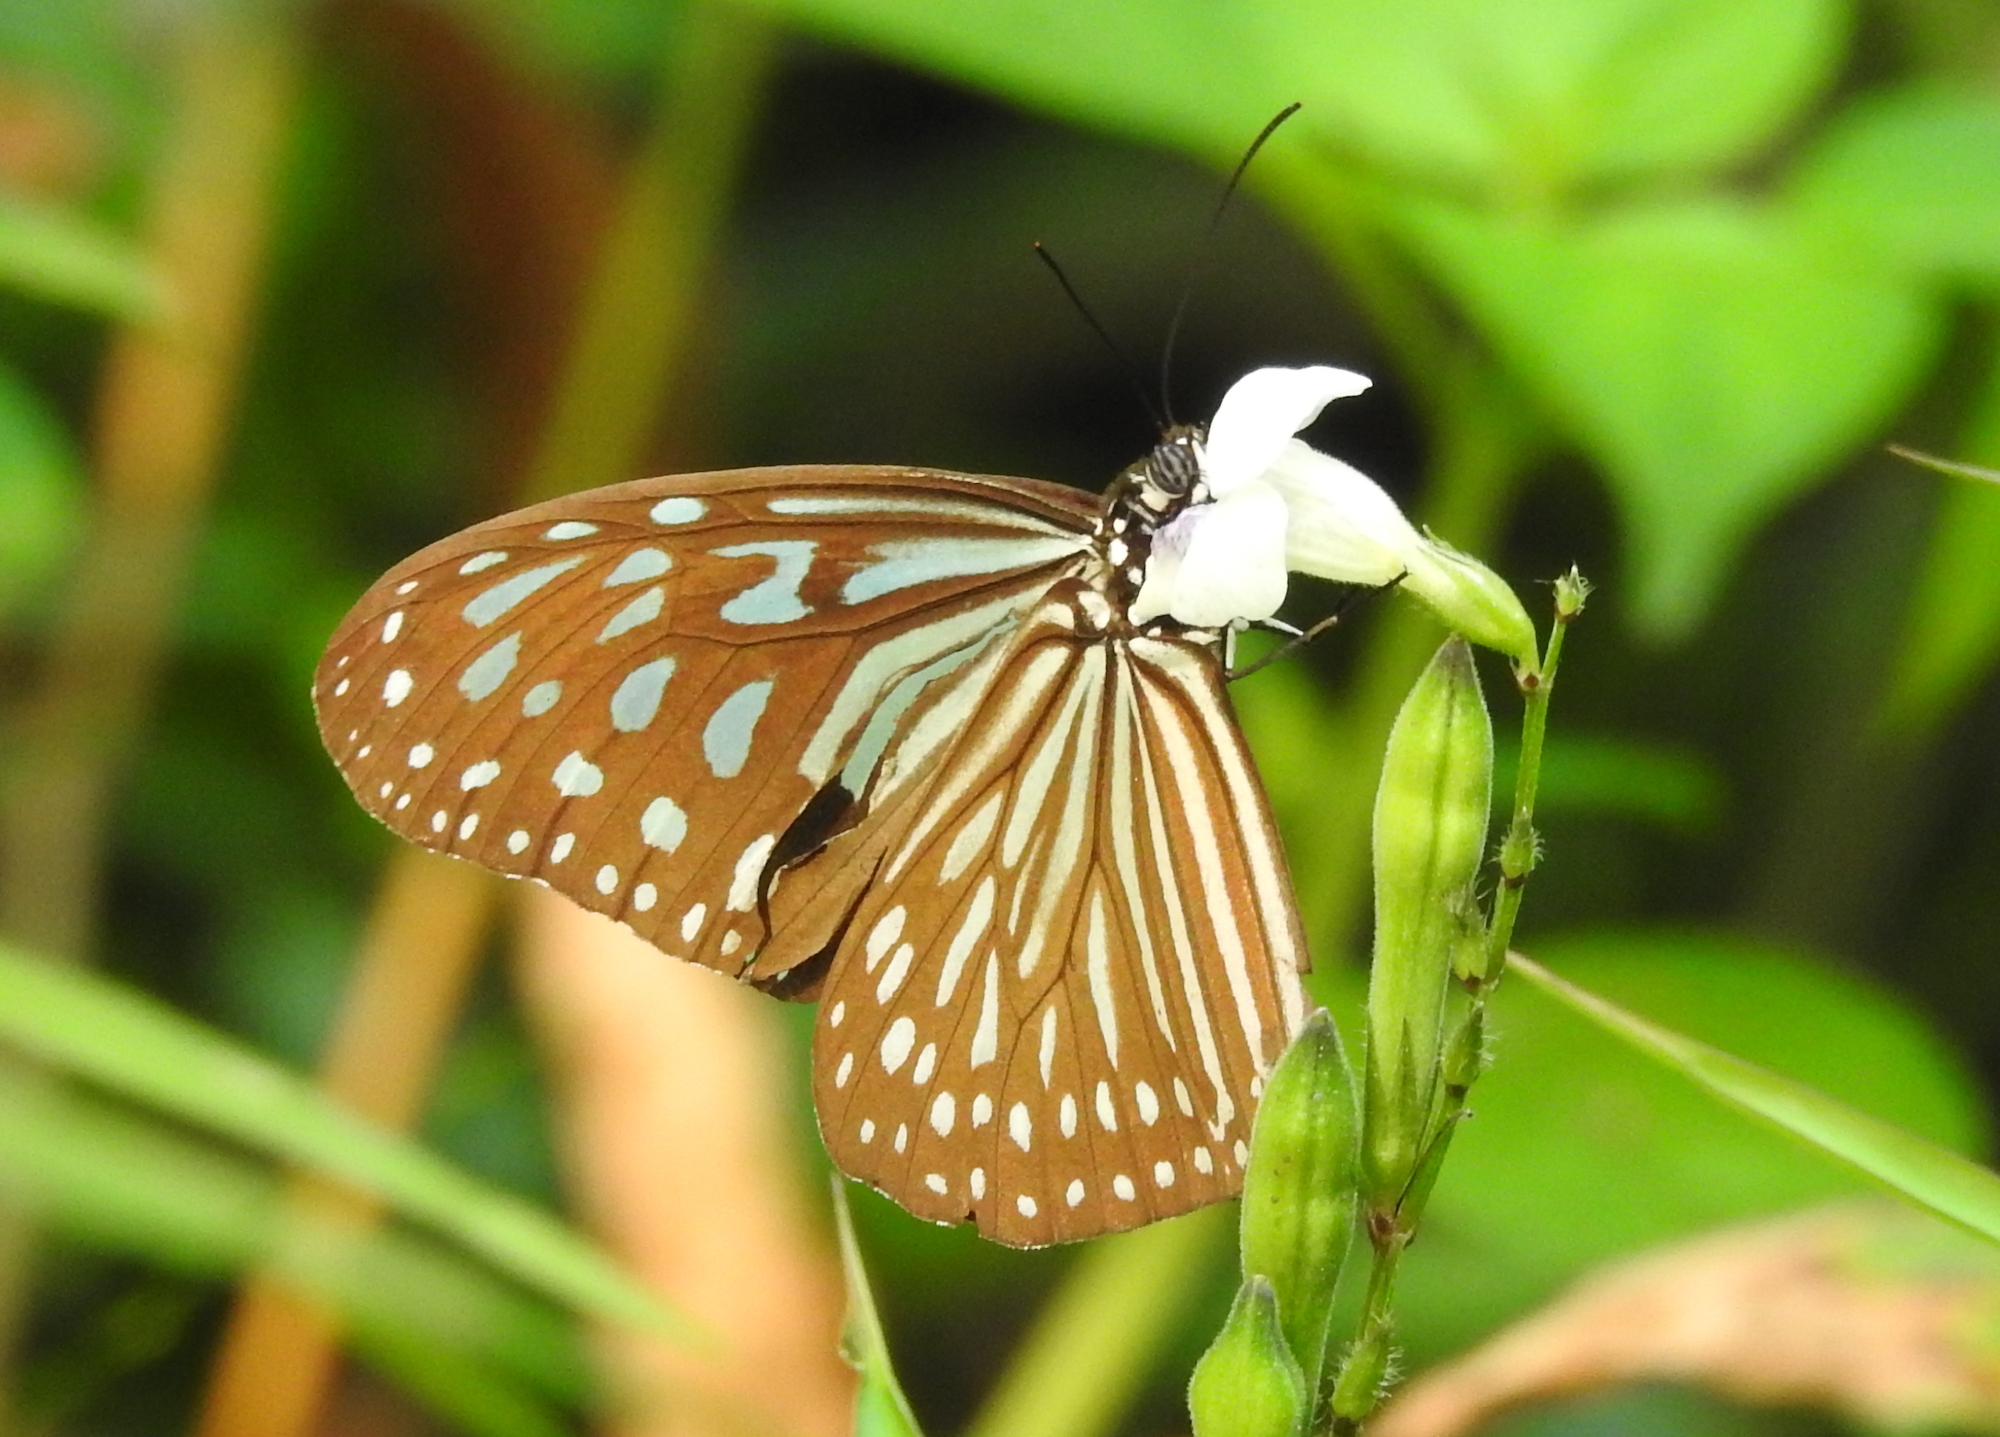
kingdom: Animalia
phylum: Arthropoda
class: Insecta
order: Lepidoptera
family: Nymphalidae
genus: Ideopsis
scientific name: Ideopsis vulgaris
